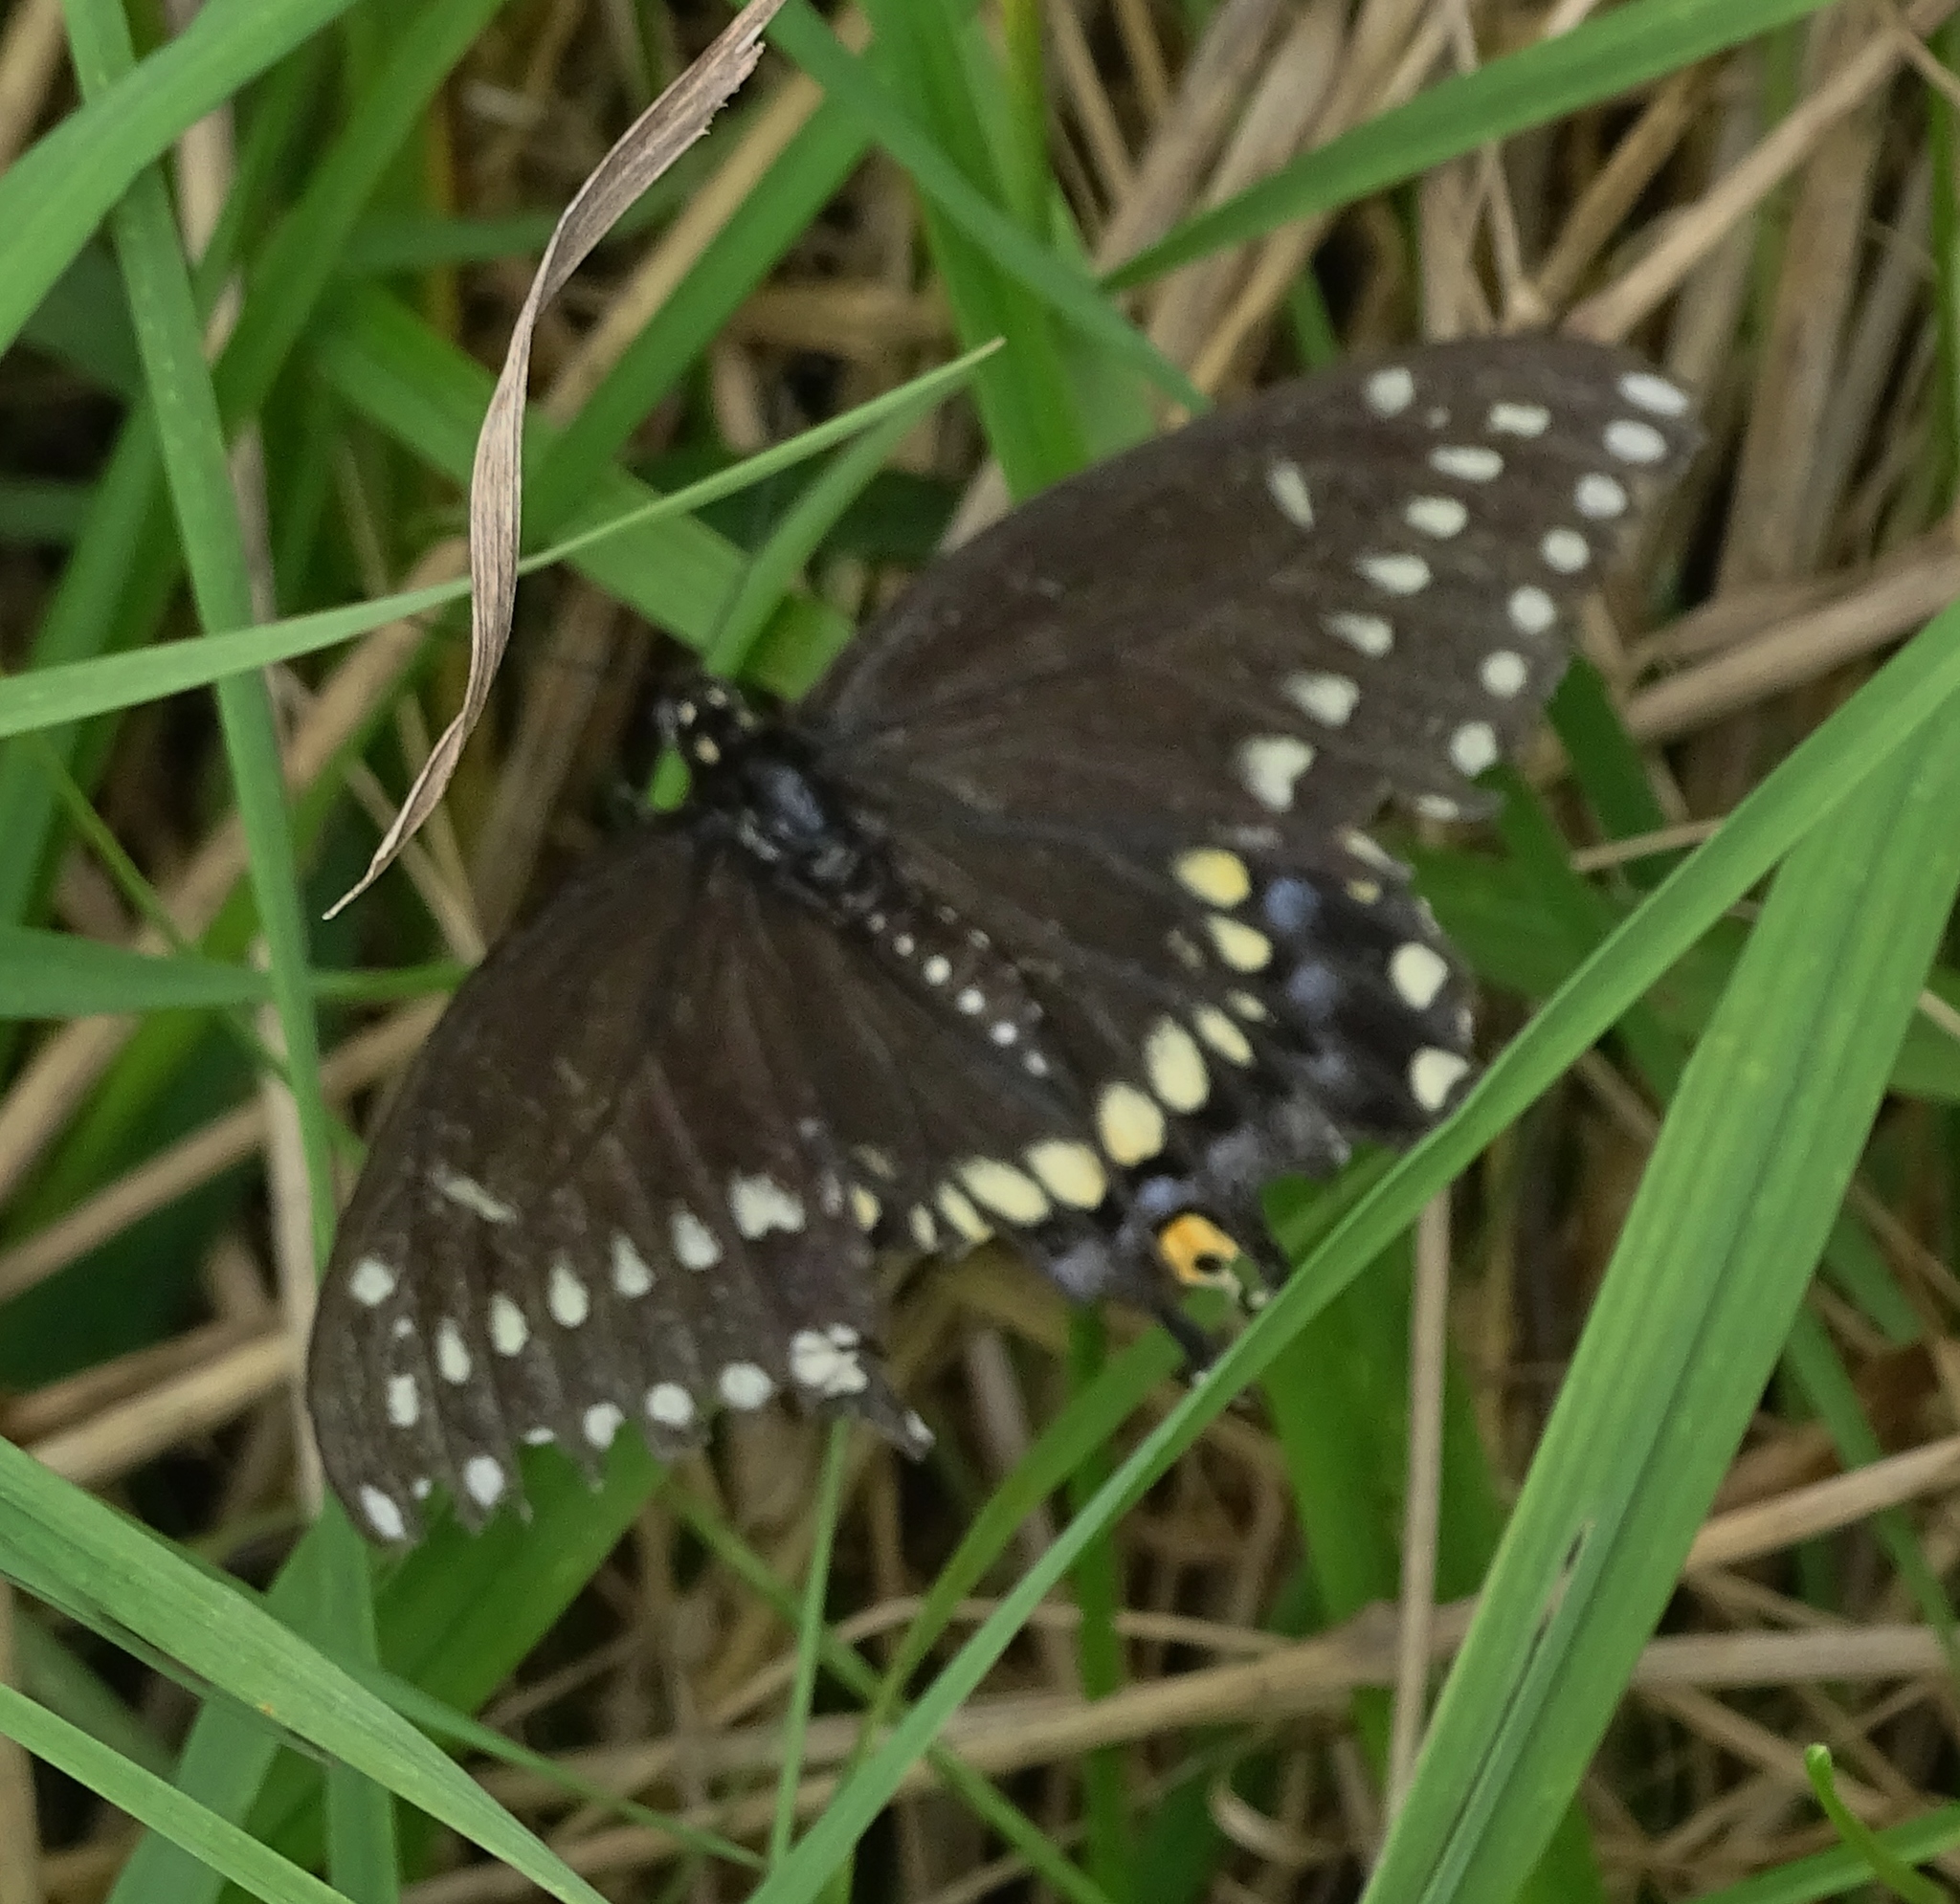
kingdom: Animalia
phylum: Arthropoda
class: Insecta
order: Lepidoptera
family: Papilionidae
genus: Papilio
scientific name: Papilio polyxenes
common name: Black swallowtail
